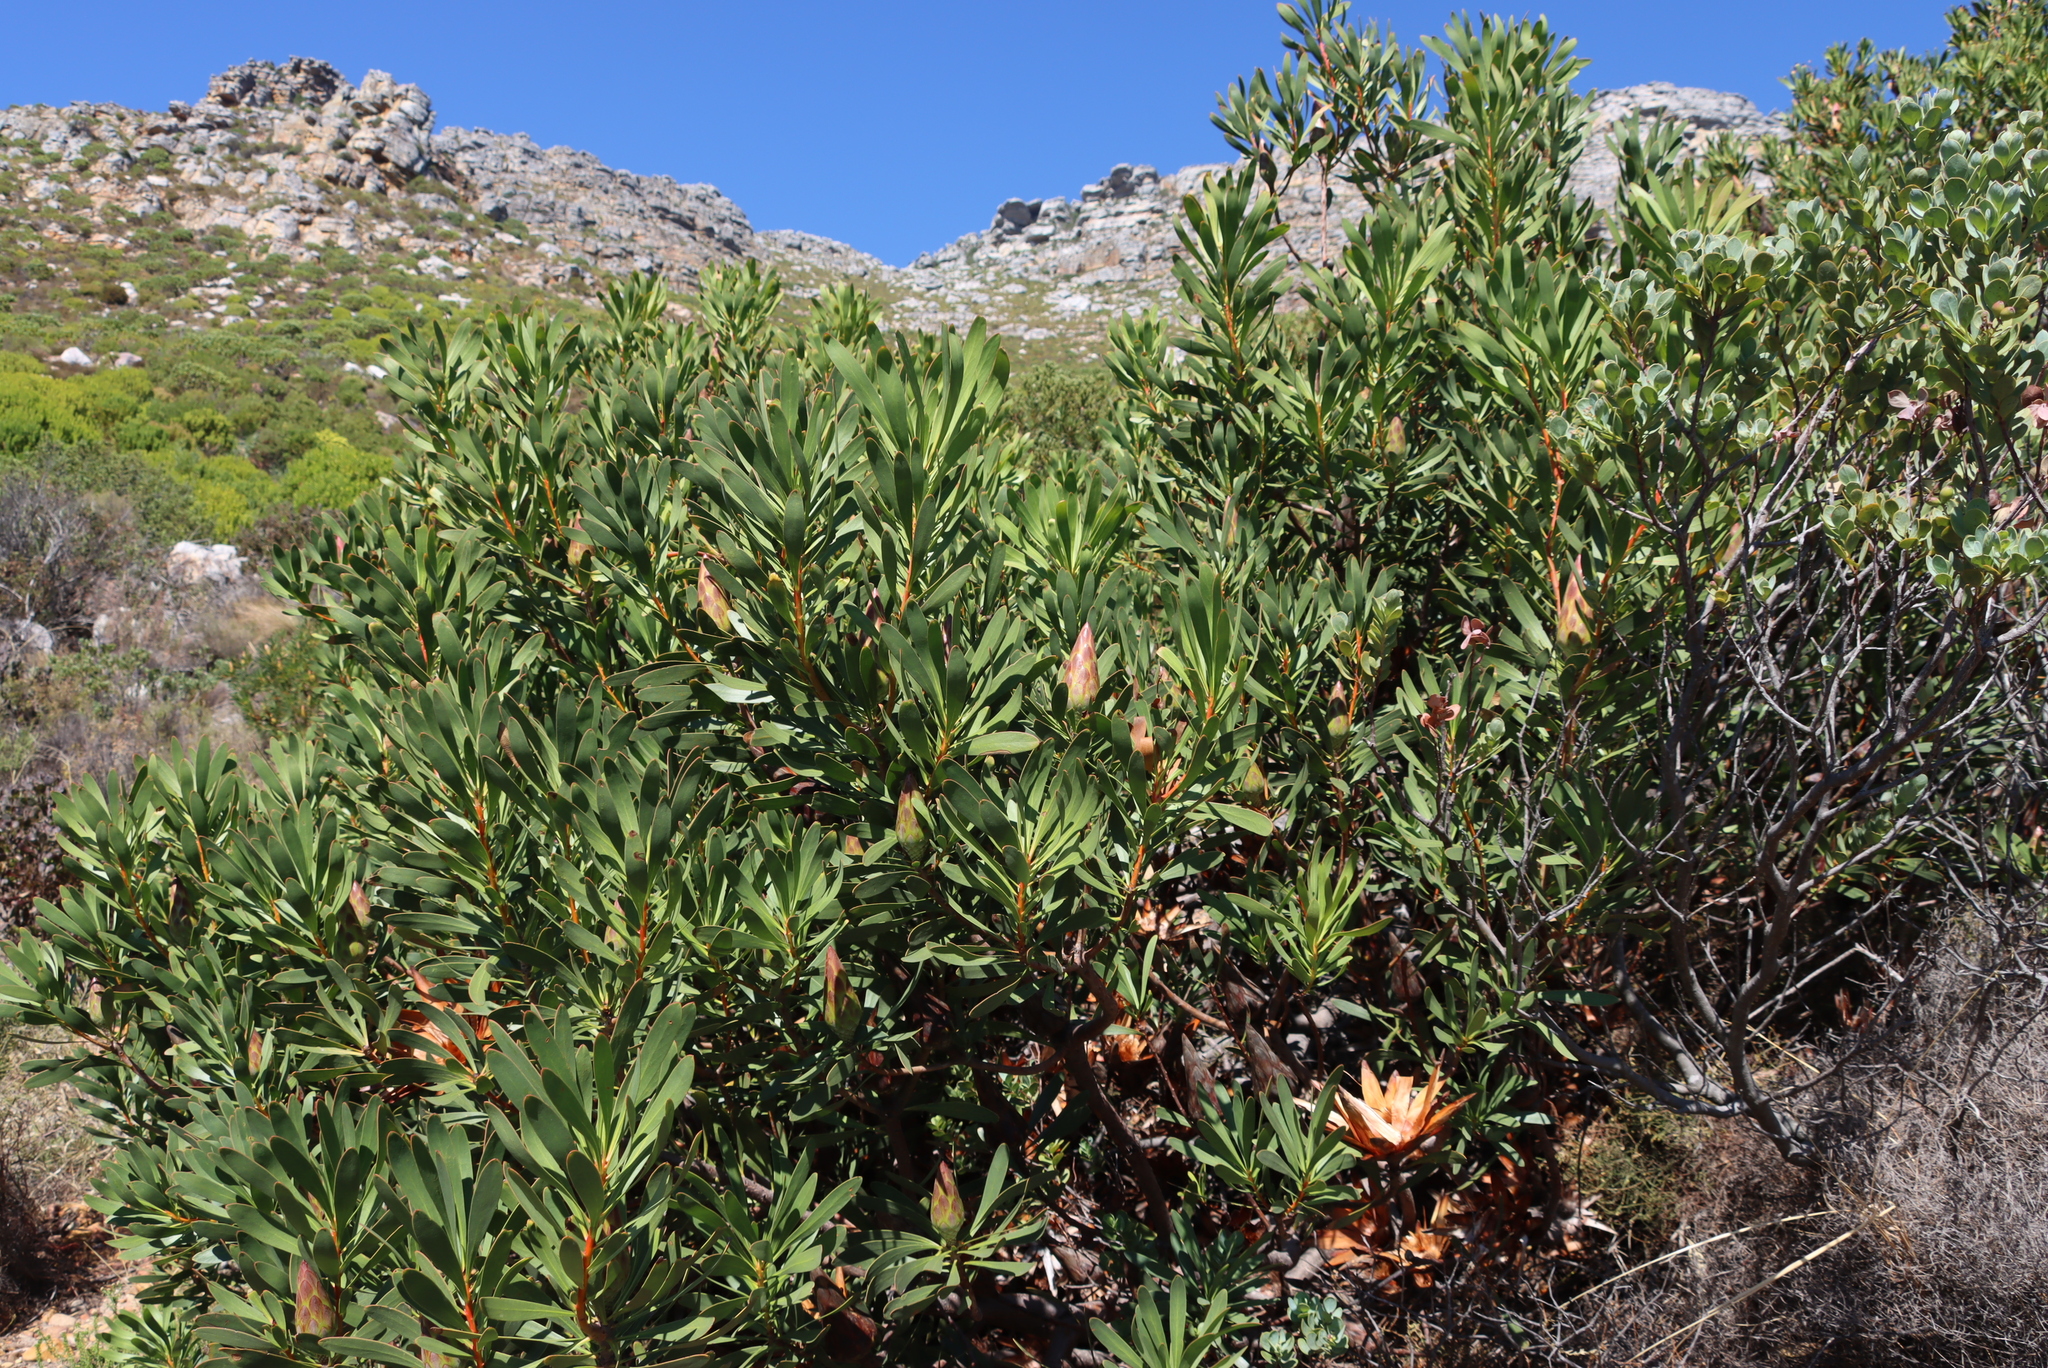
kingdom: Plantae
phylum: Tracheophyta
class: Magnoliopsida
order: Proteales
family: Proteaceae
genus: Protea
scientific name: Protea repens
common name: Sugarbush
